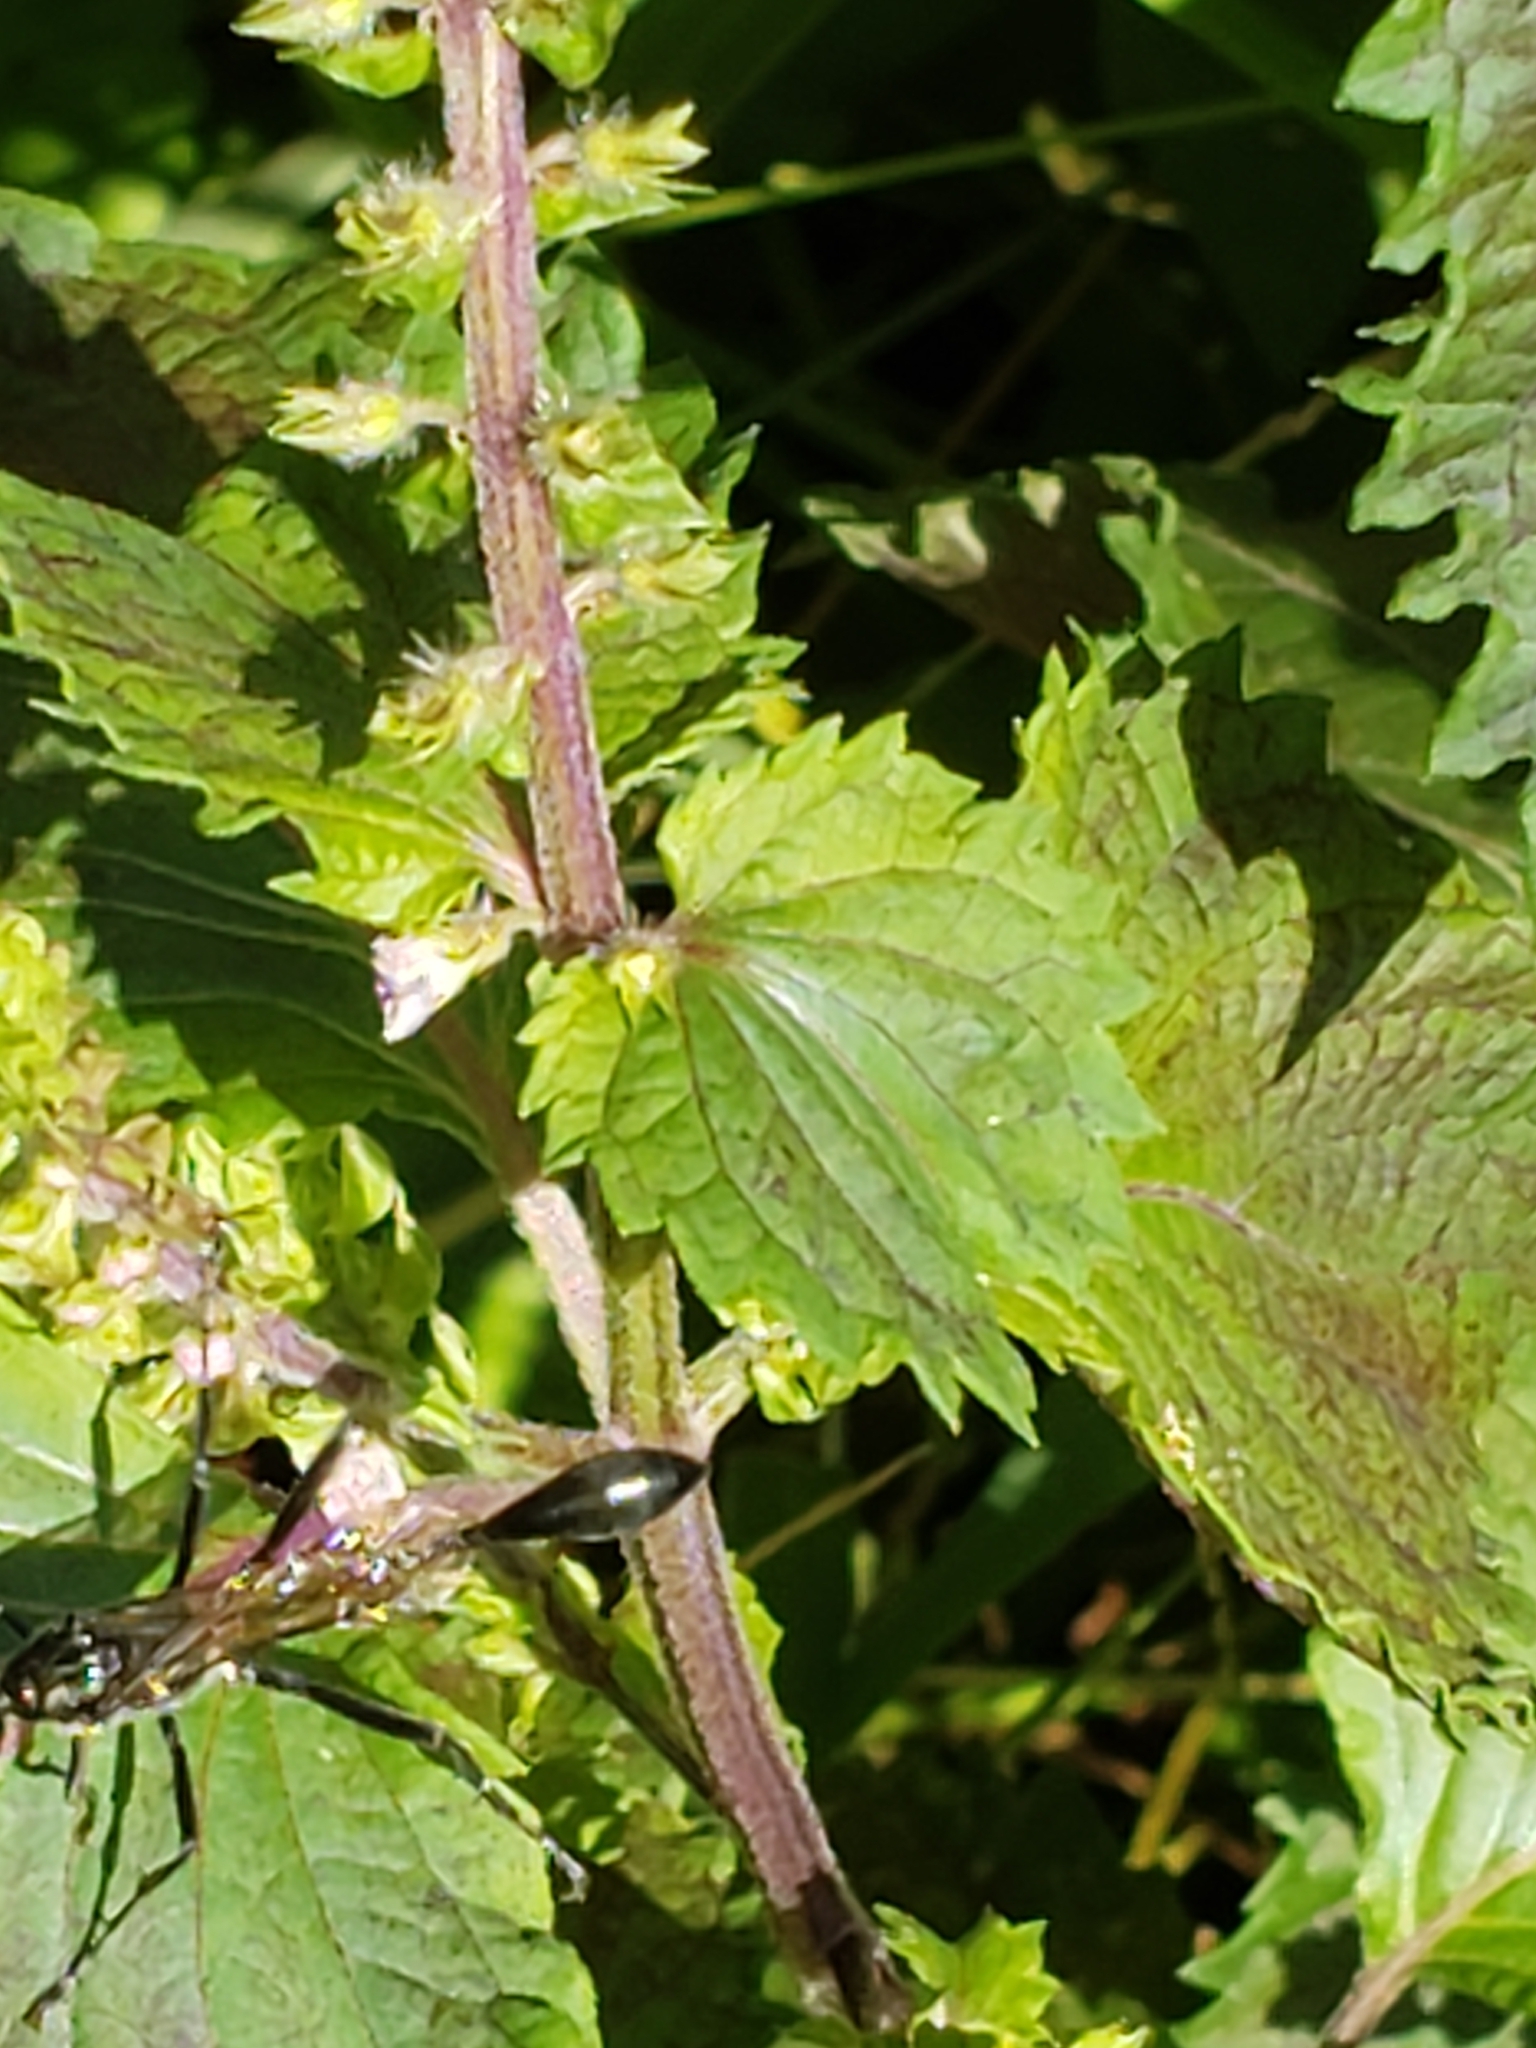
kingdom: Animalia
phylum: Arthropoda
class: Insecta
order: Hymenoptera
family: Sphecidae
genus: Eremnophila
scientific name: Eremnophila aureonotata
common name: Gold-marked thread-waisted wasp
